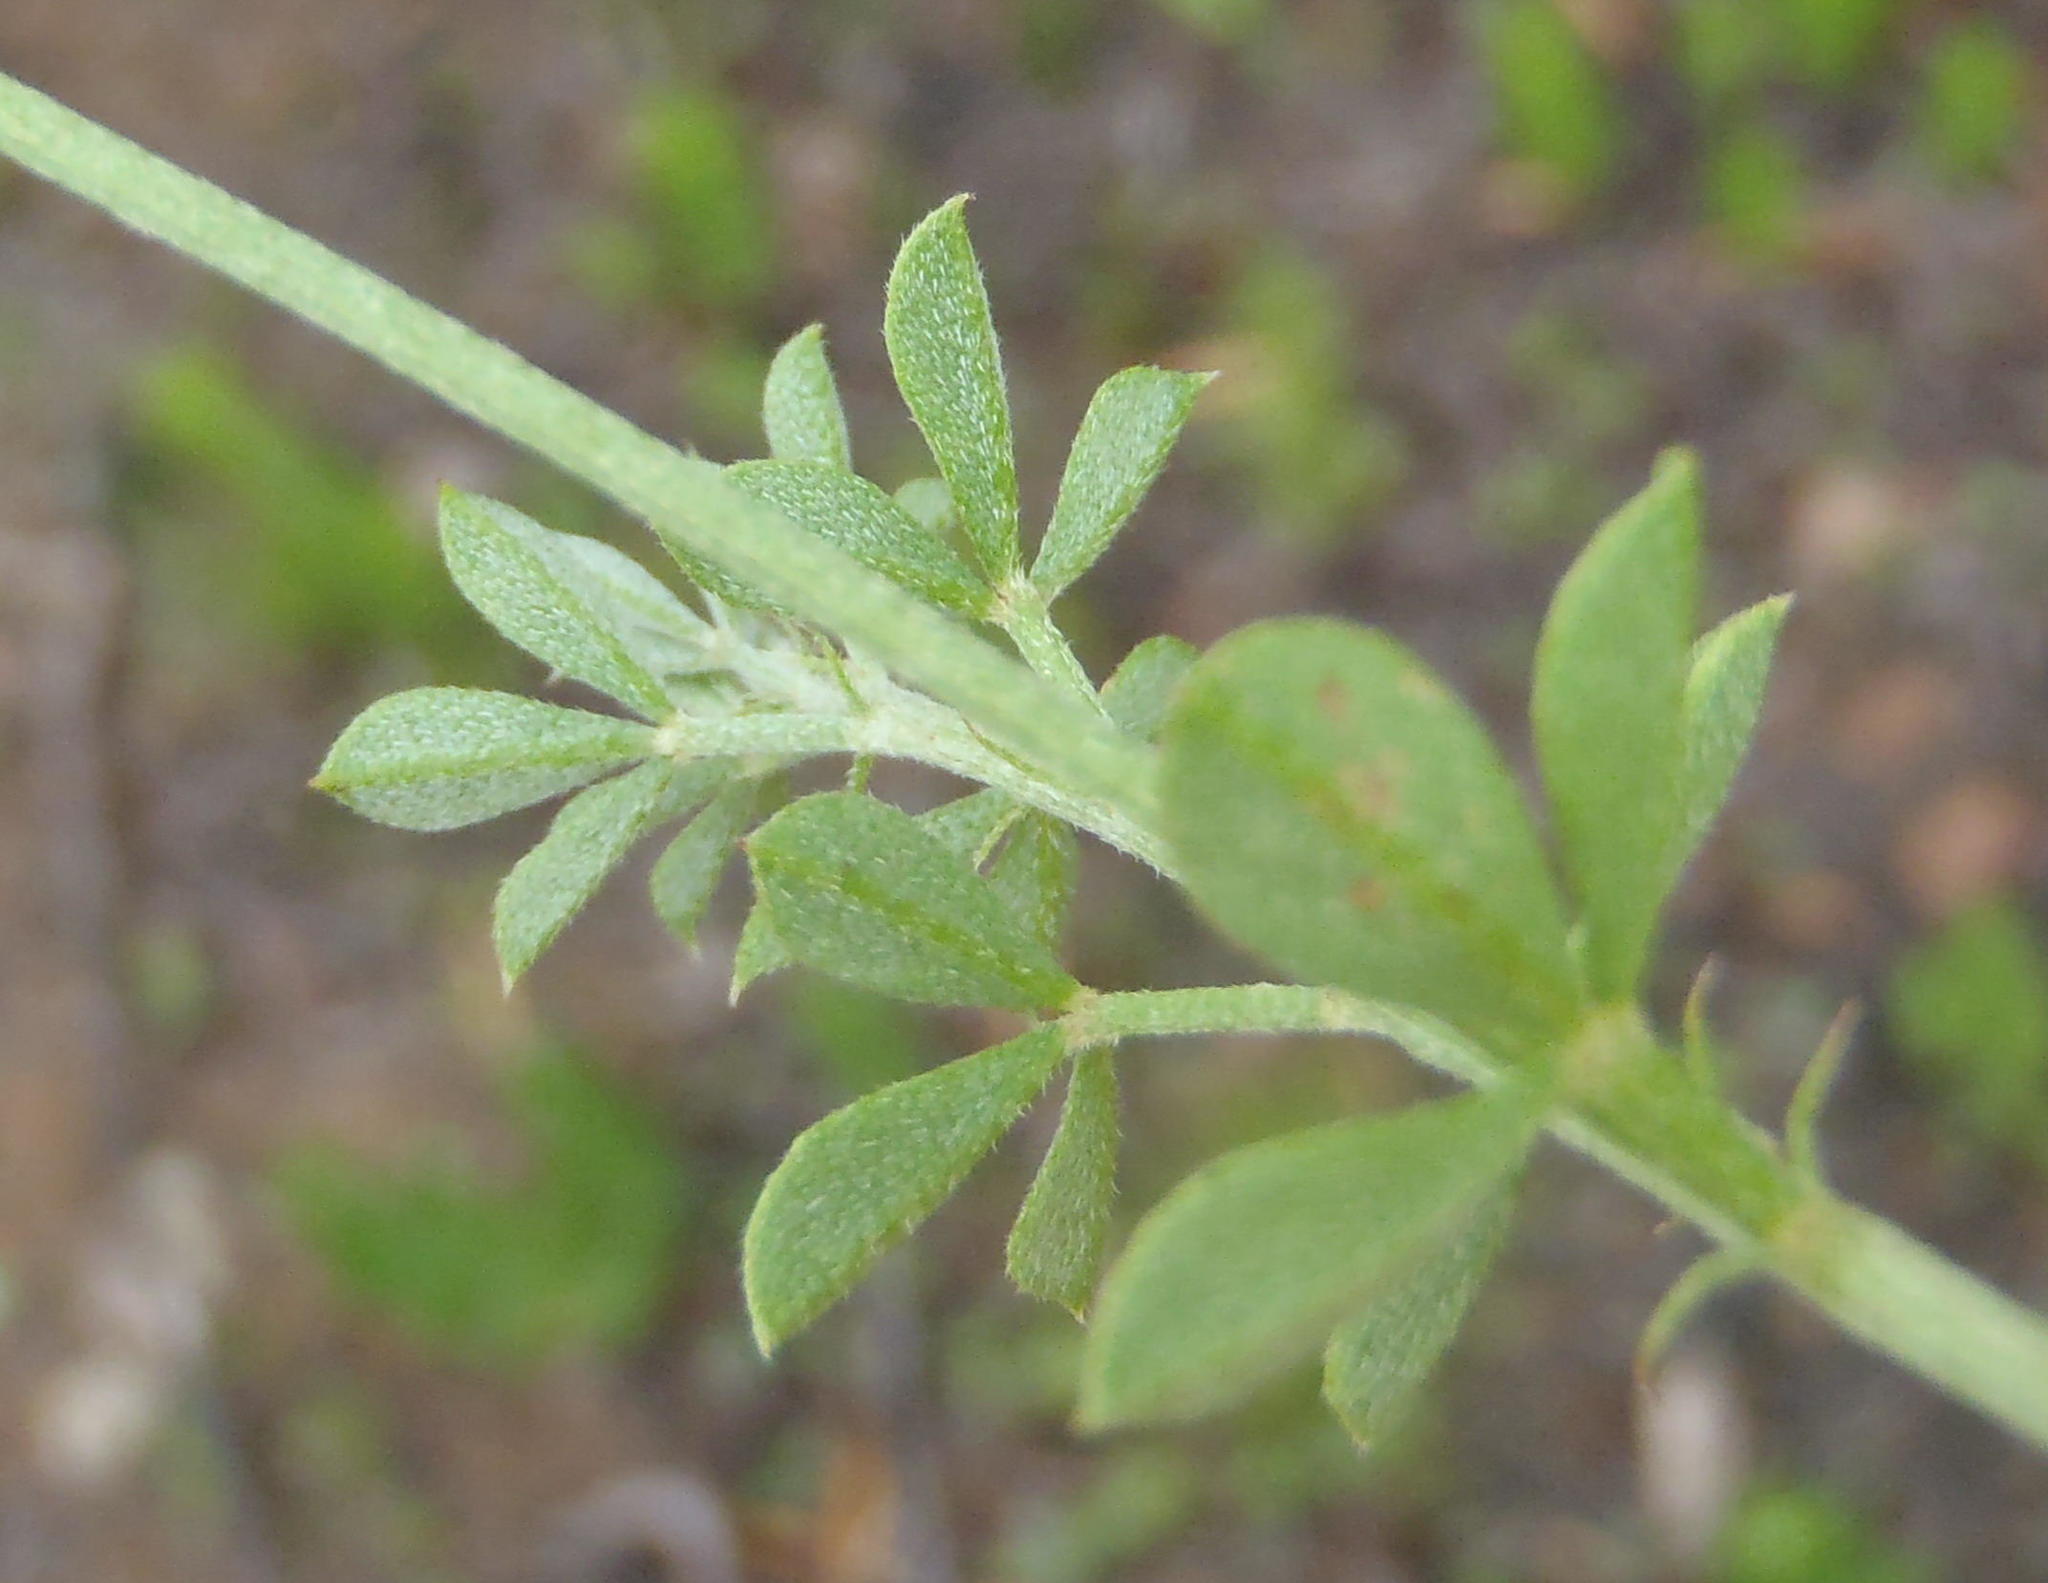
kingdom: Plantae
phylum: Tracheophyta
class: Magnoliopsida
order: Fabales
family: Fabaceae
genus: Indigofera
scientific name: Indigofera porrecta
